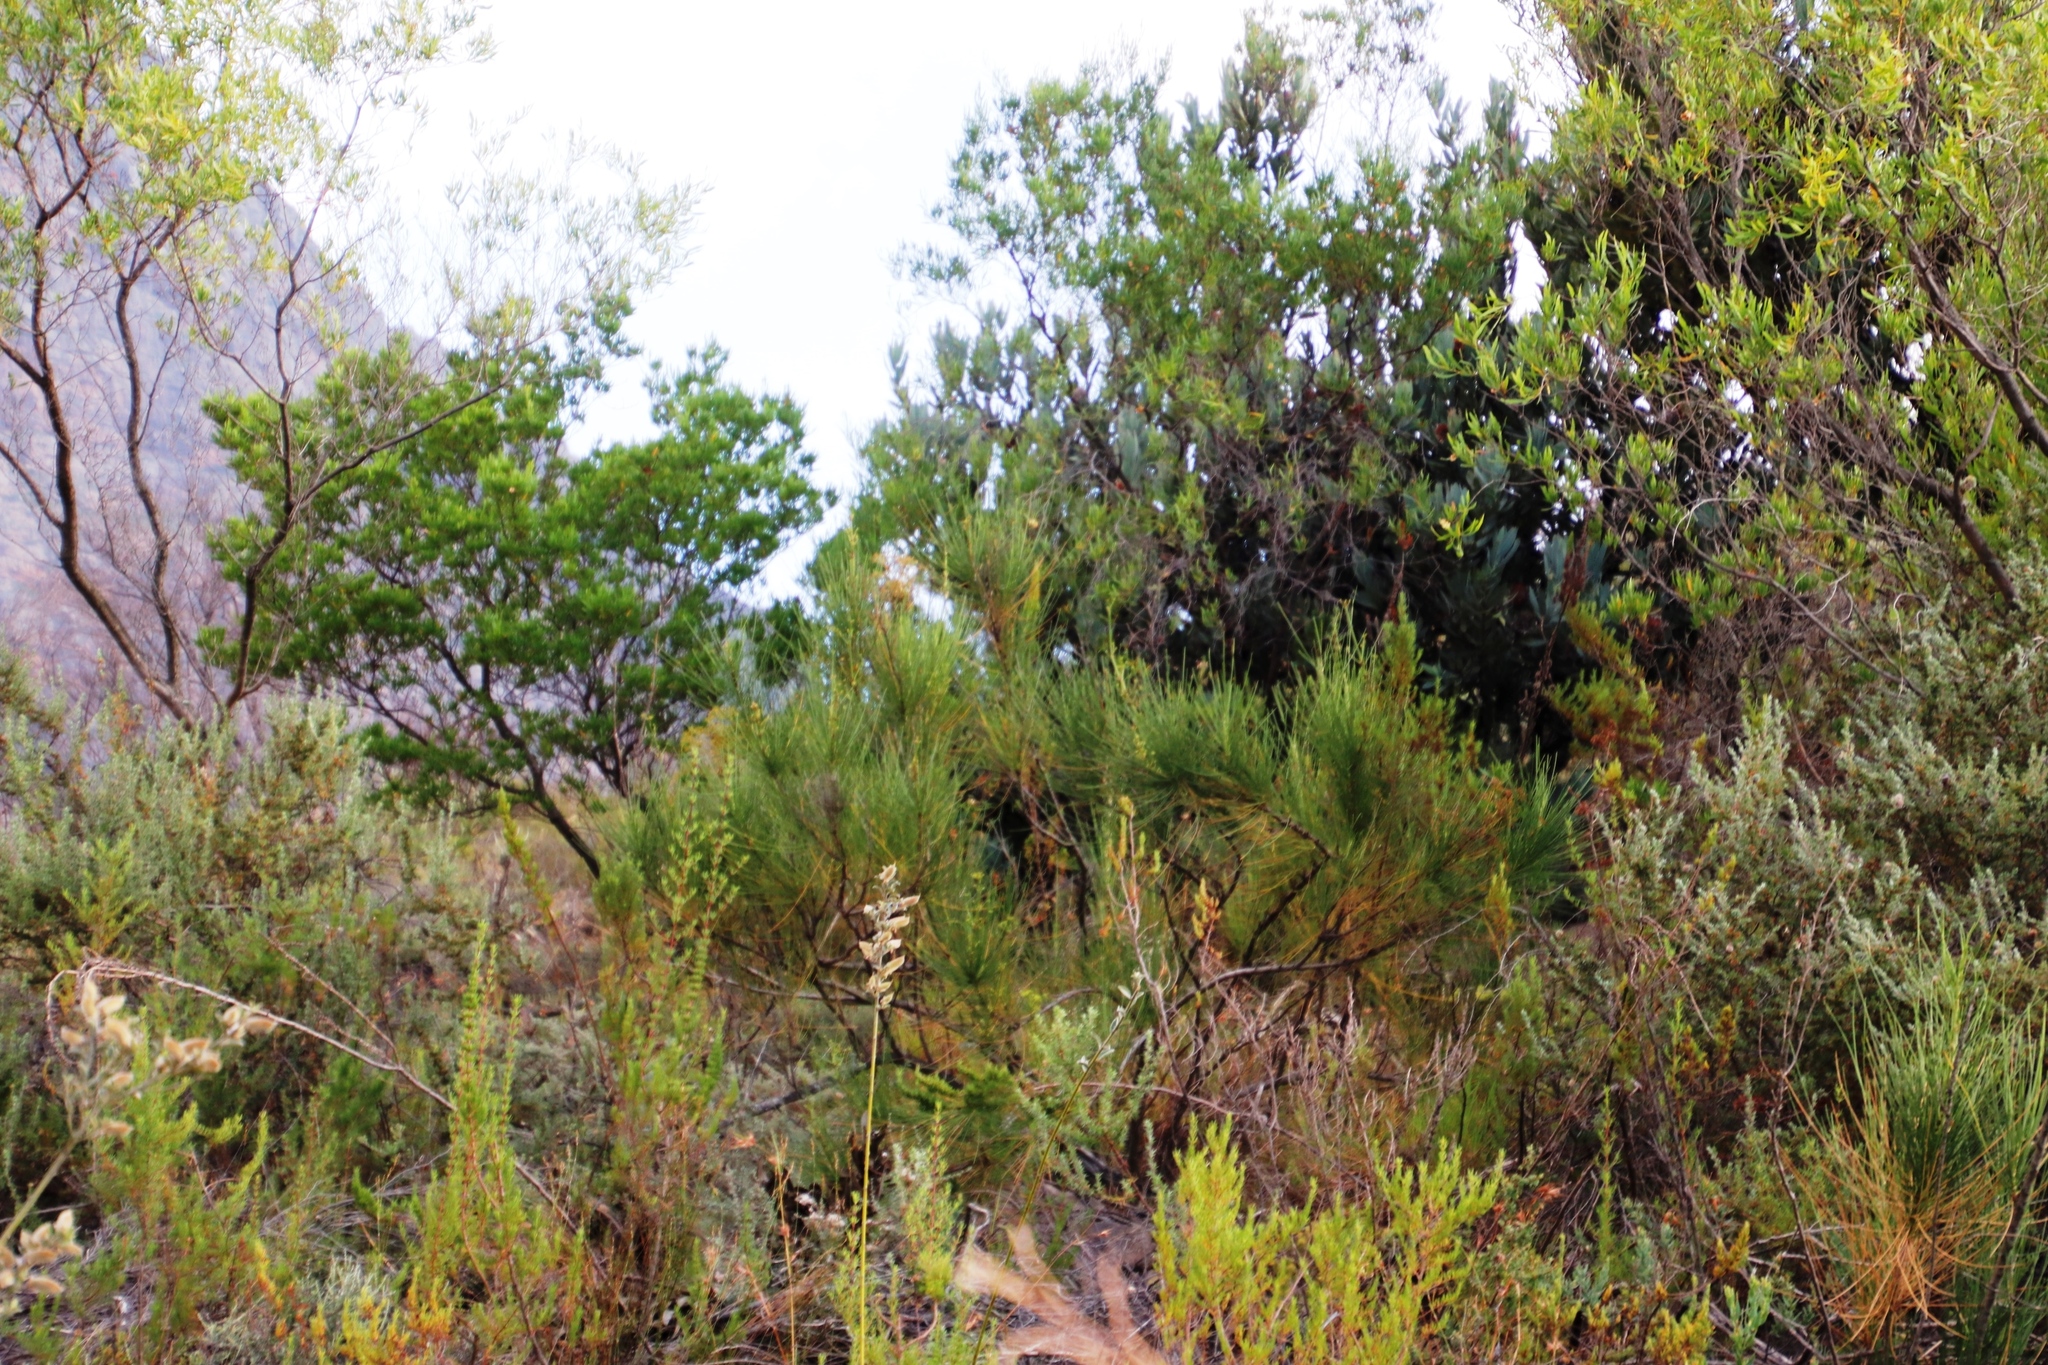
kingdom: Plantae
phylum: Tracheophyta
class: Magnoliopsida
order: Apiales
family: Apiaceae
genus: Anginon
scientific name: Anginon difforme
